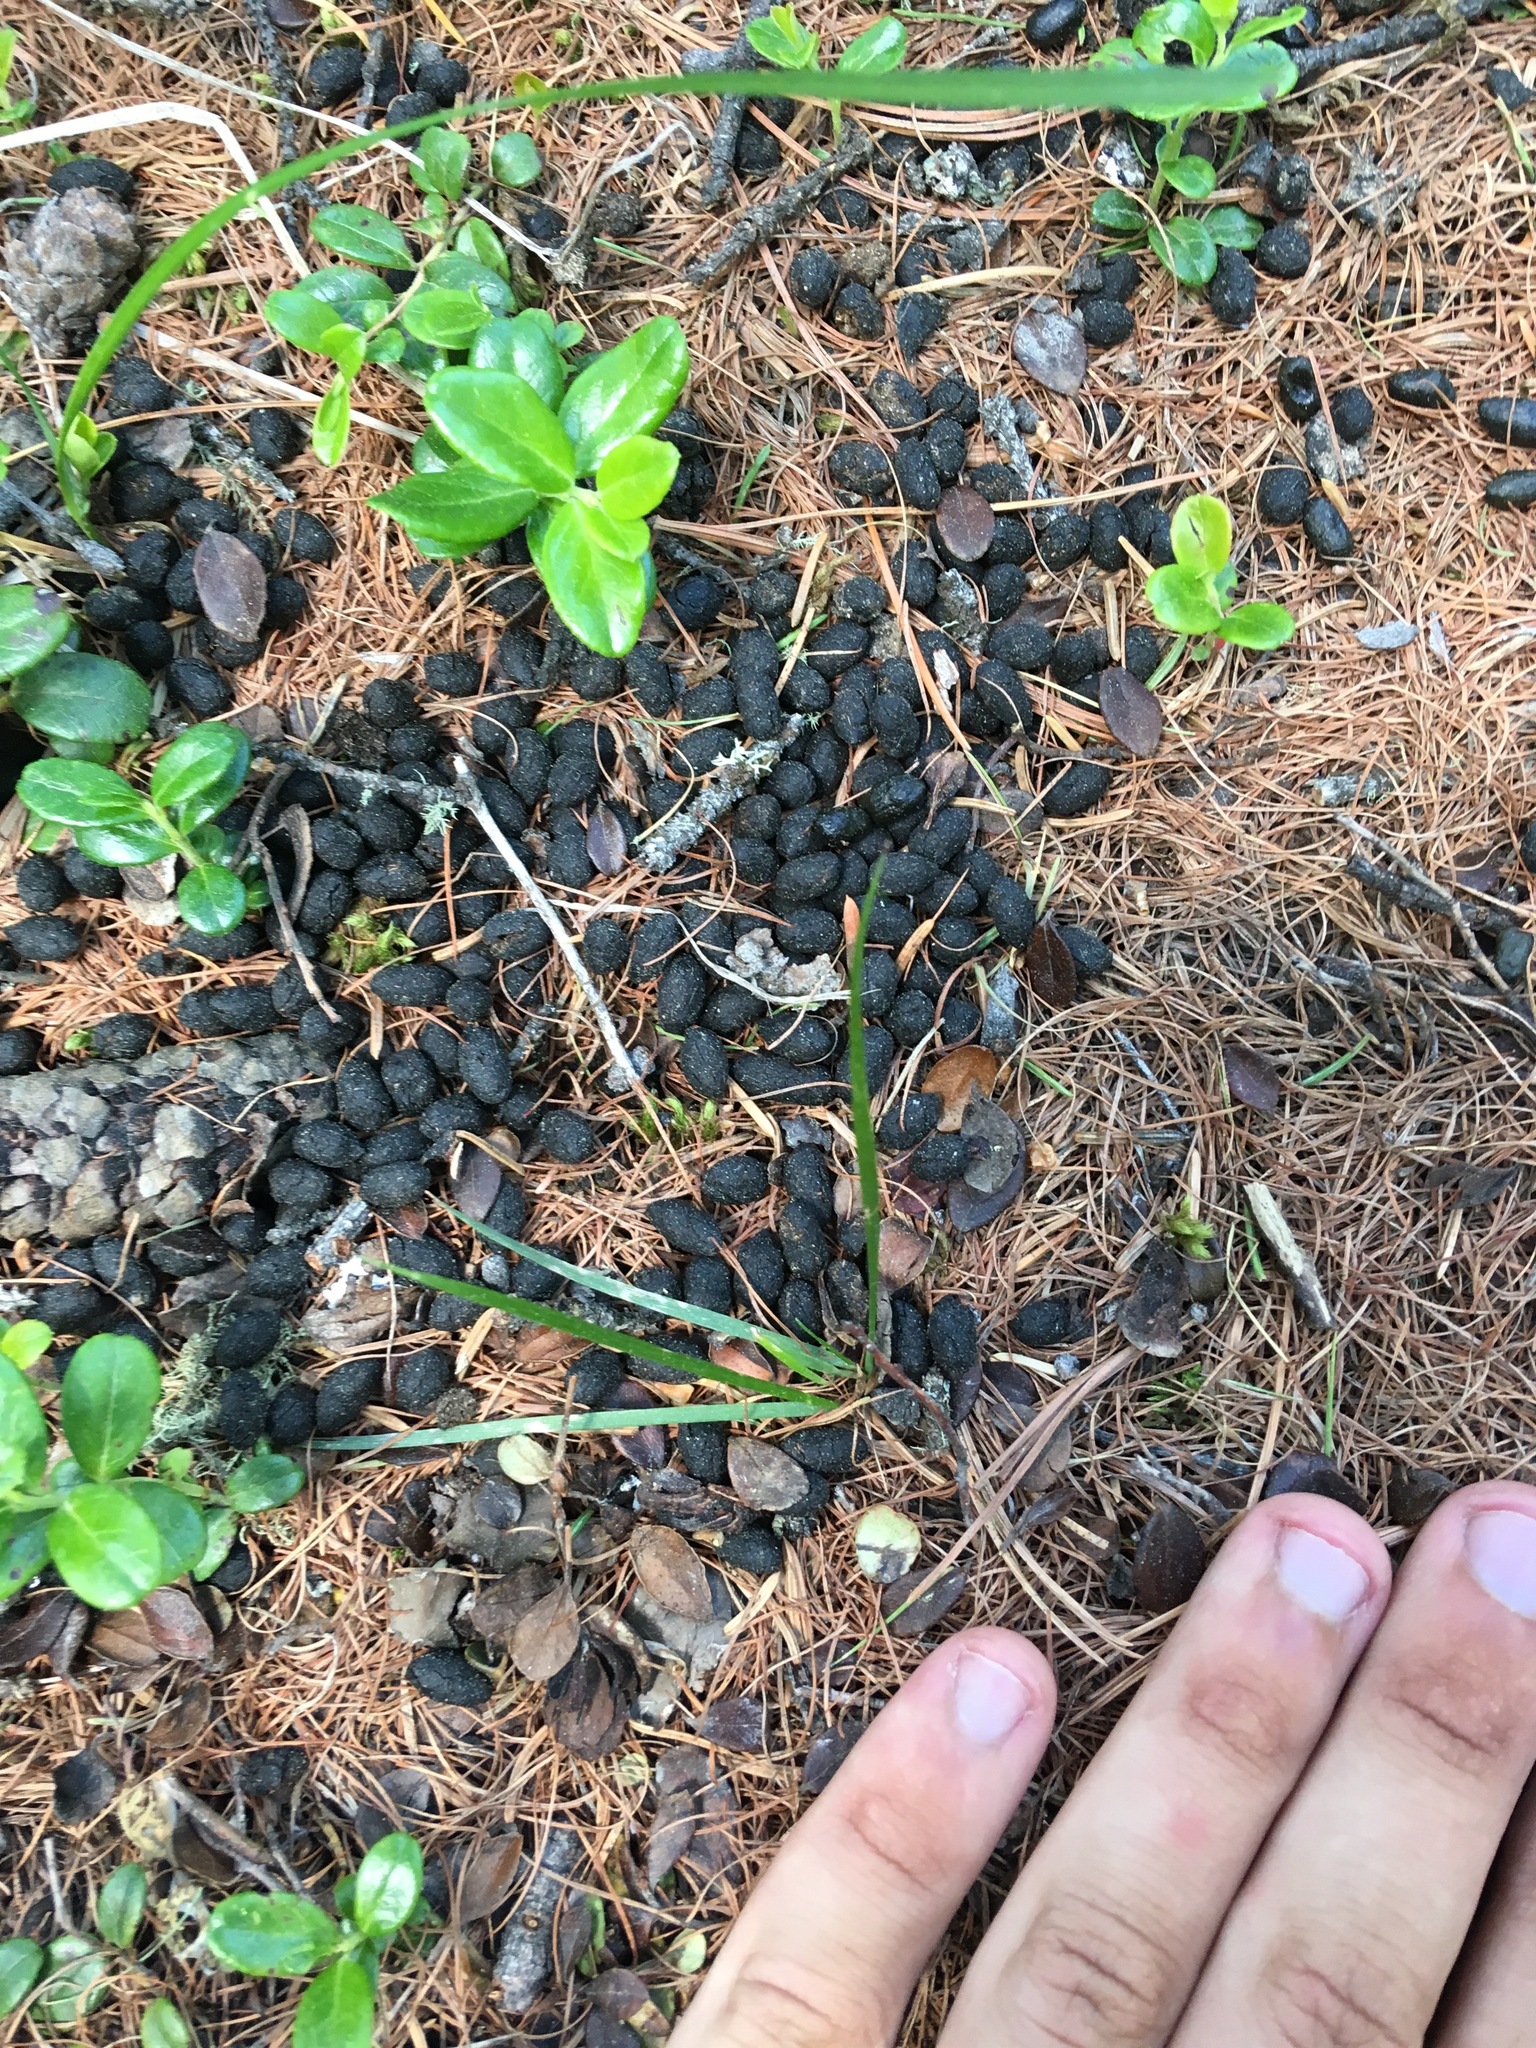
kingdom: Animalia
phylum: Chordata
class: Mammalia
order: Artiodactyla
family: Moschidae
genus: Moschus
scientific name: Moschus moschiferus
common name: Siberian musk deer
